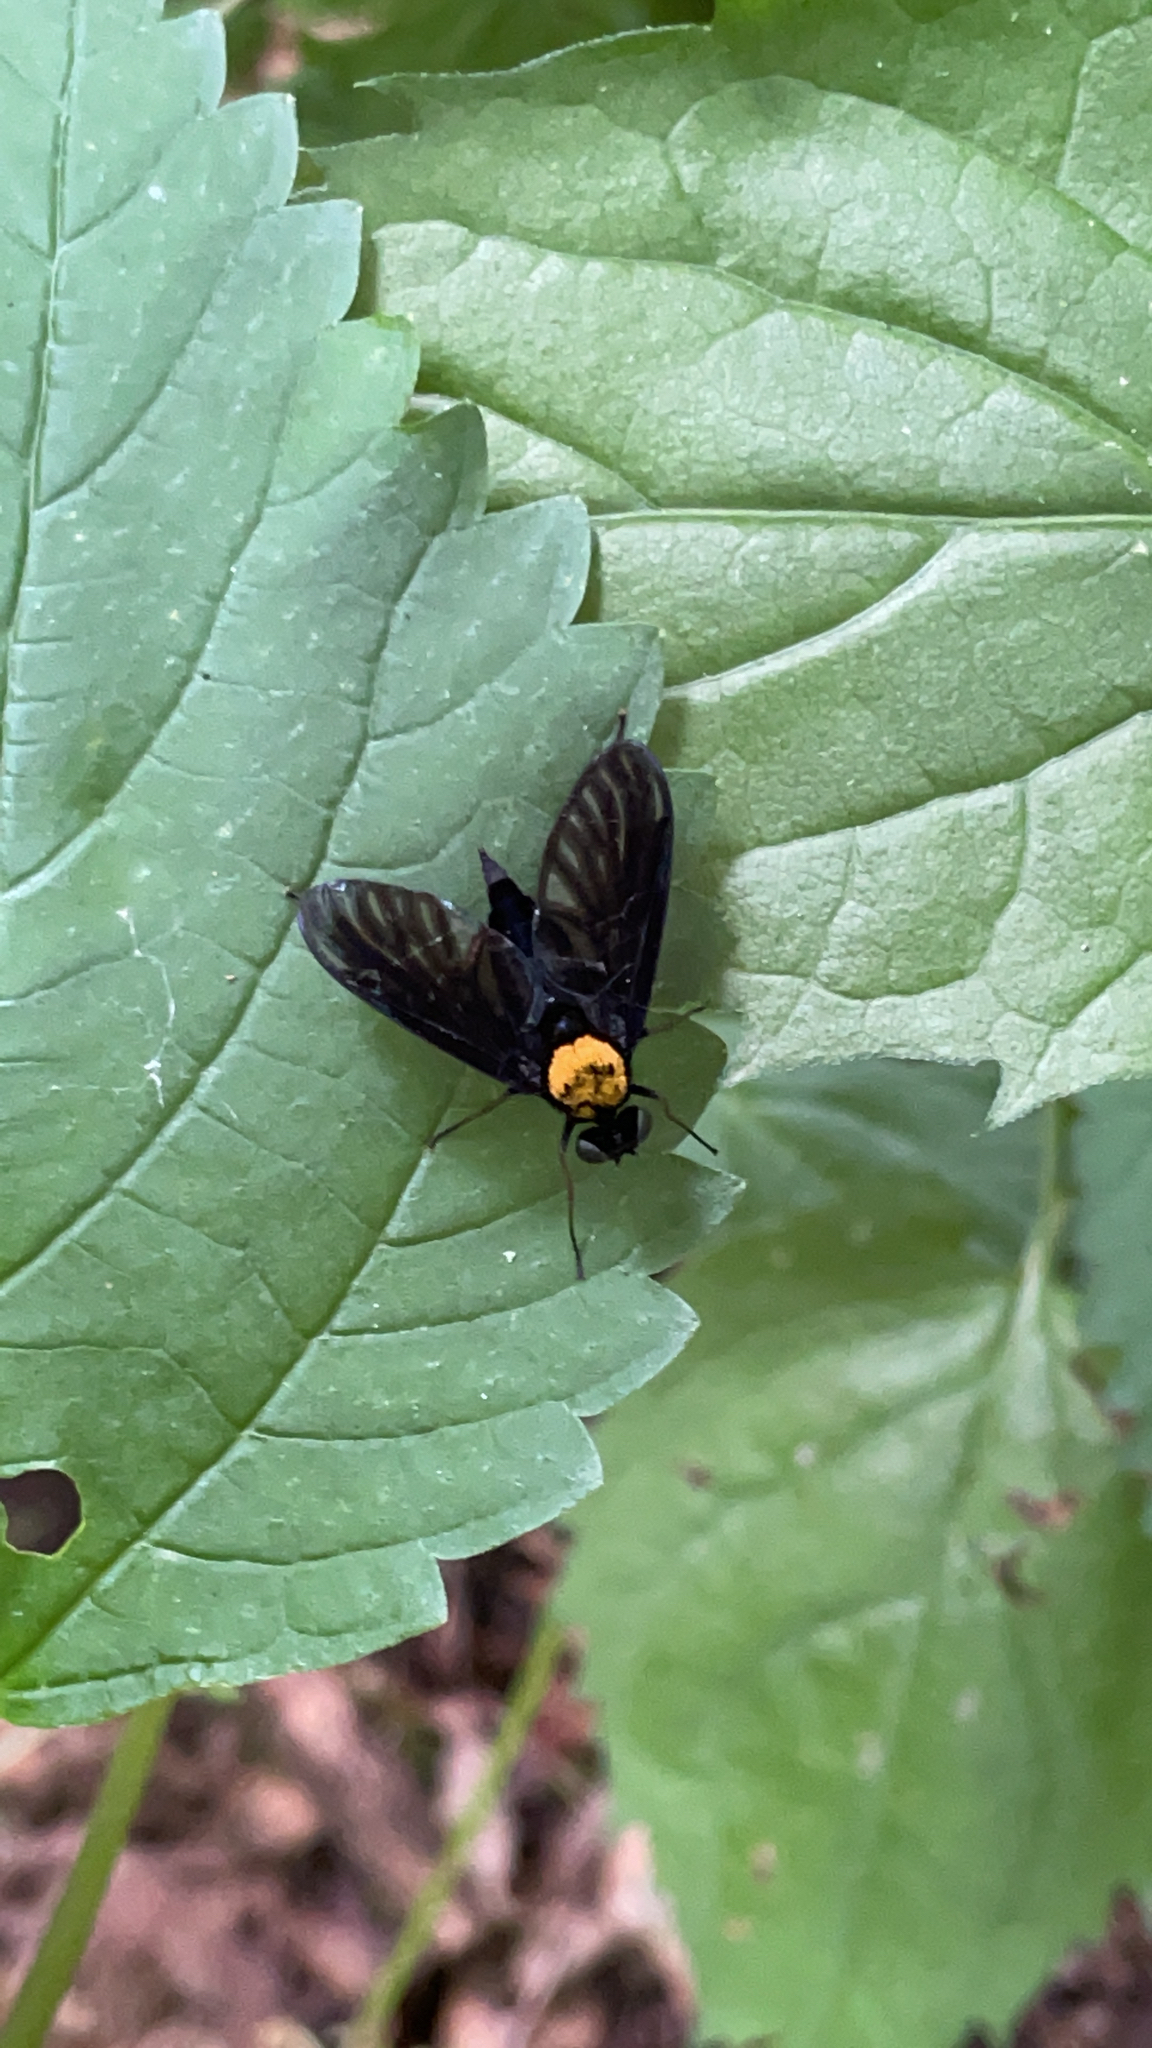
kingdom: Animalia
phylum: Arthropoda
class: Insecta
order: Diptera
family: Rhagionidae
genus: Chrysopilus
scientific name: Chrysopilus davisi
